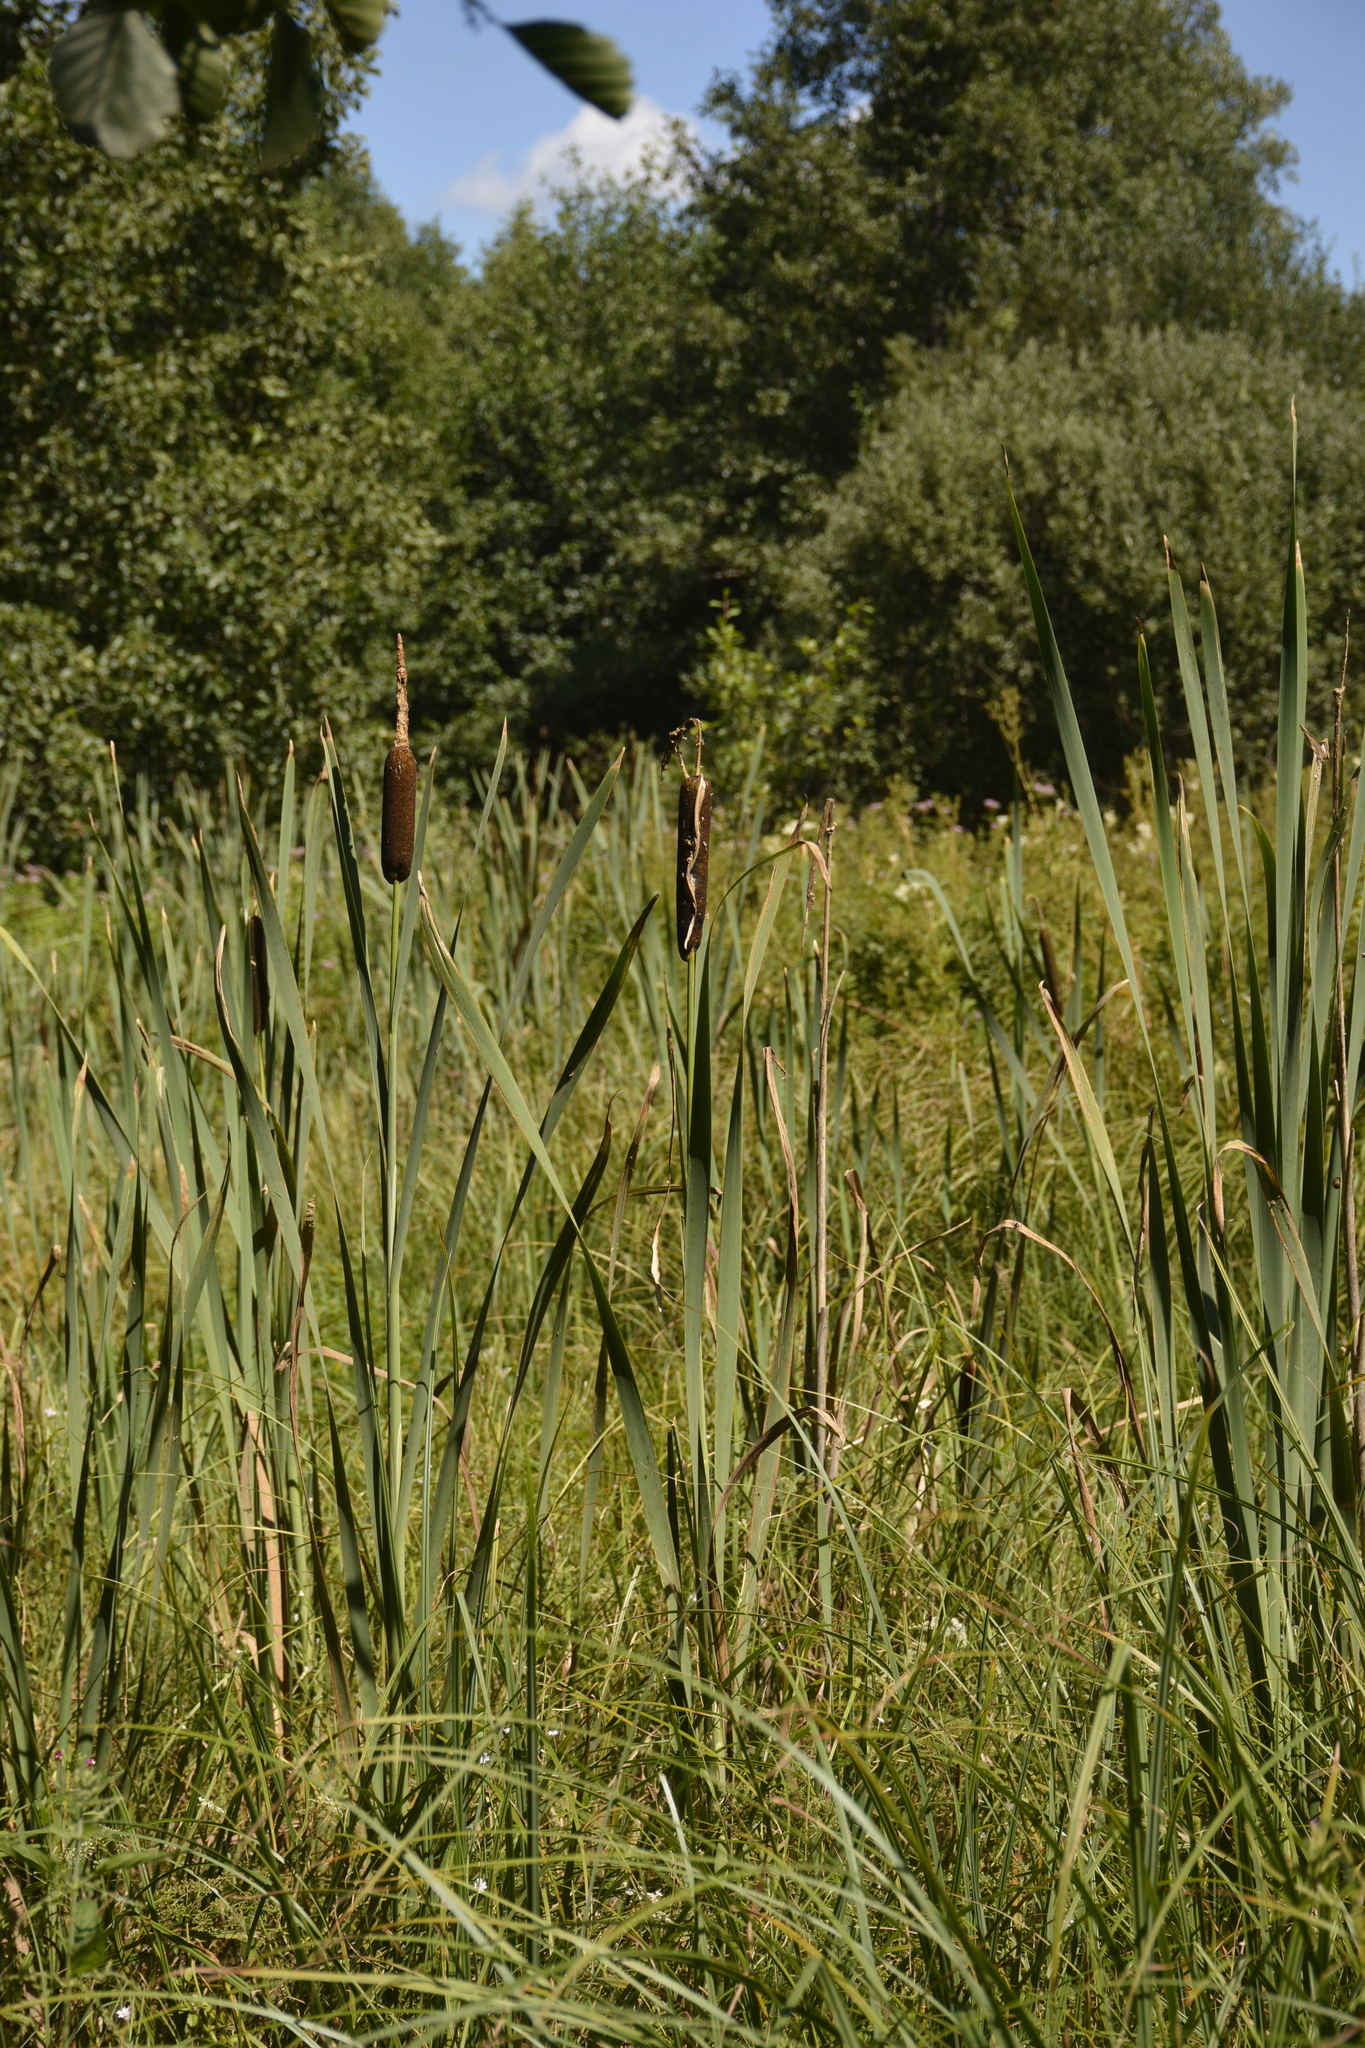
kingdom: Plantae
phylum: Tracheophyta
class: Liliopsida
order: Poales
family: Typhaceae
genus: Typha
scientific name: Typha latifolia
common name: Broadleaf cattail
